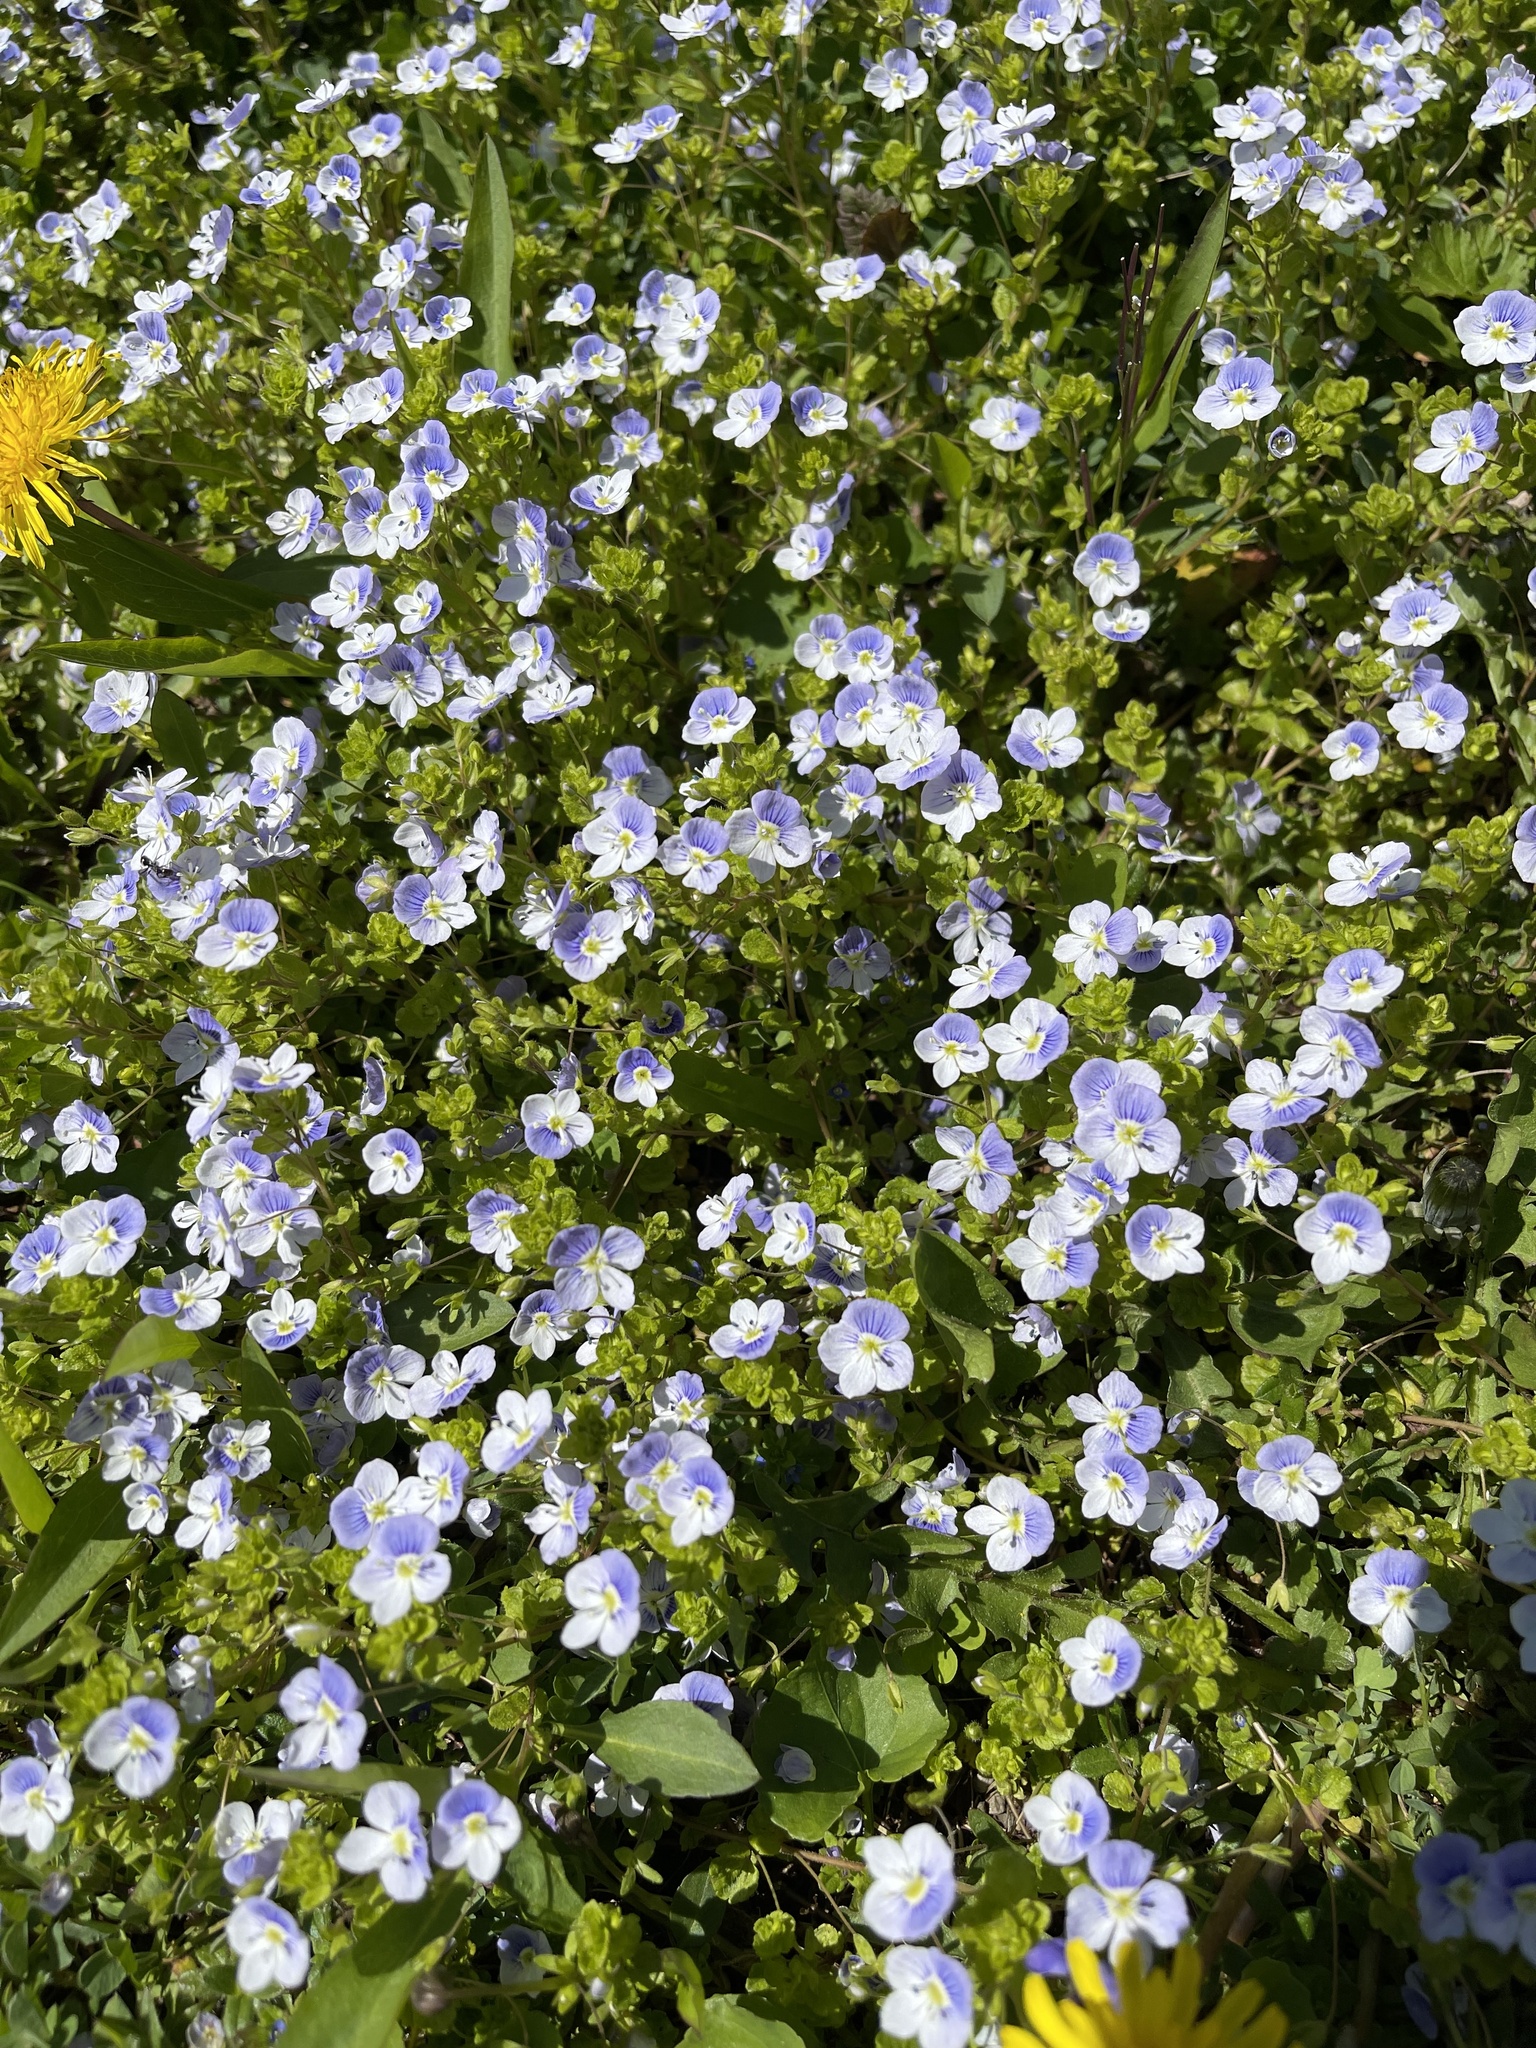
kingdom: Plantae
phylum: Tracheophyta
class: Magnoliopsida
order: Lamiales
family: Plantaginaceae
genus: Veronica
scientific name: Veronica filiformis
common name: Slender speedwell
